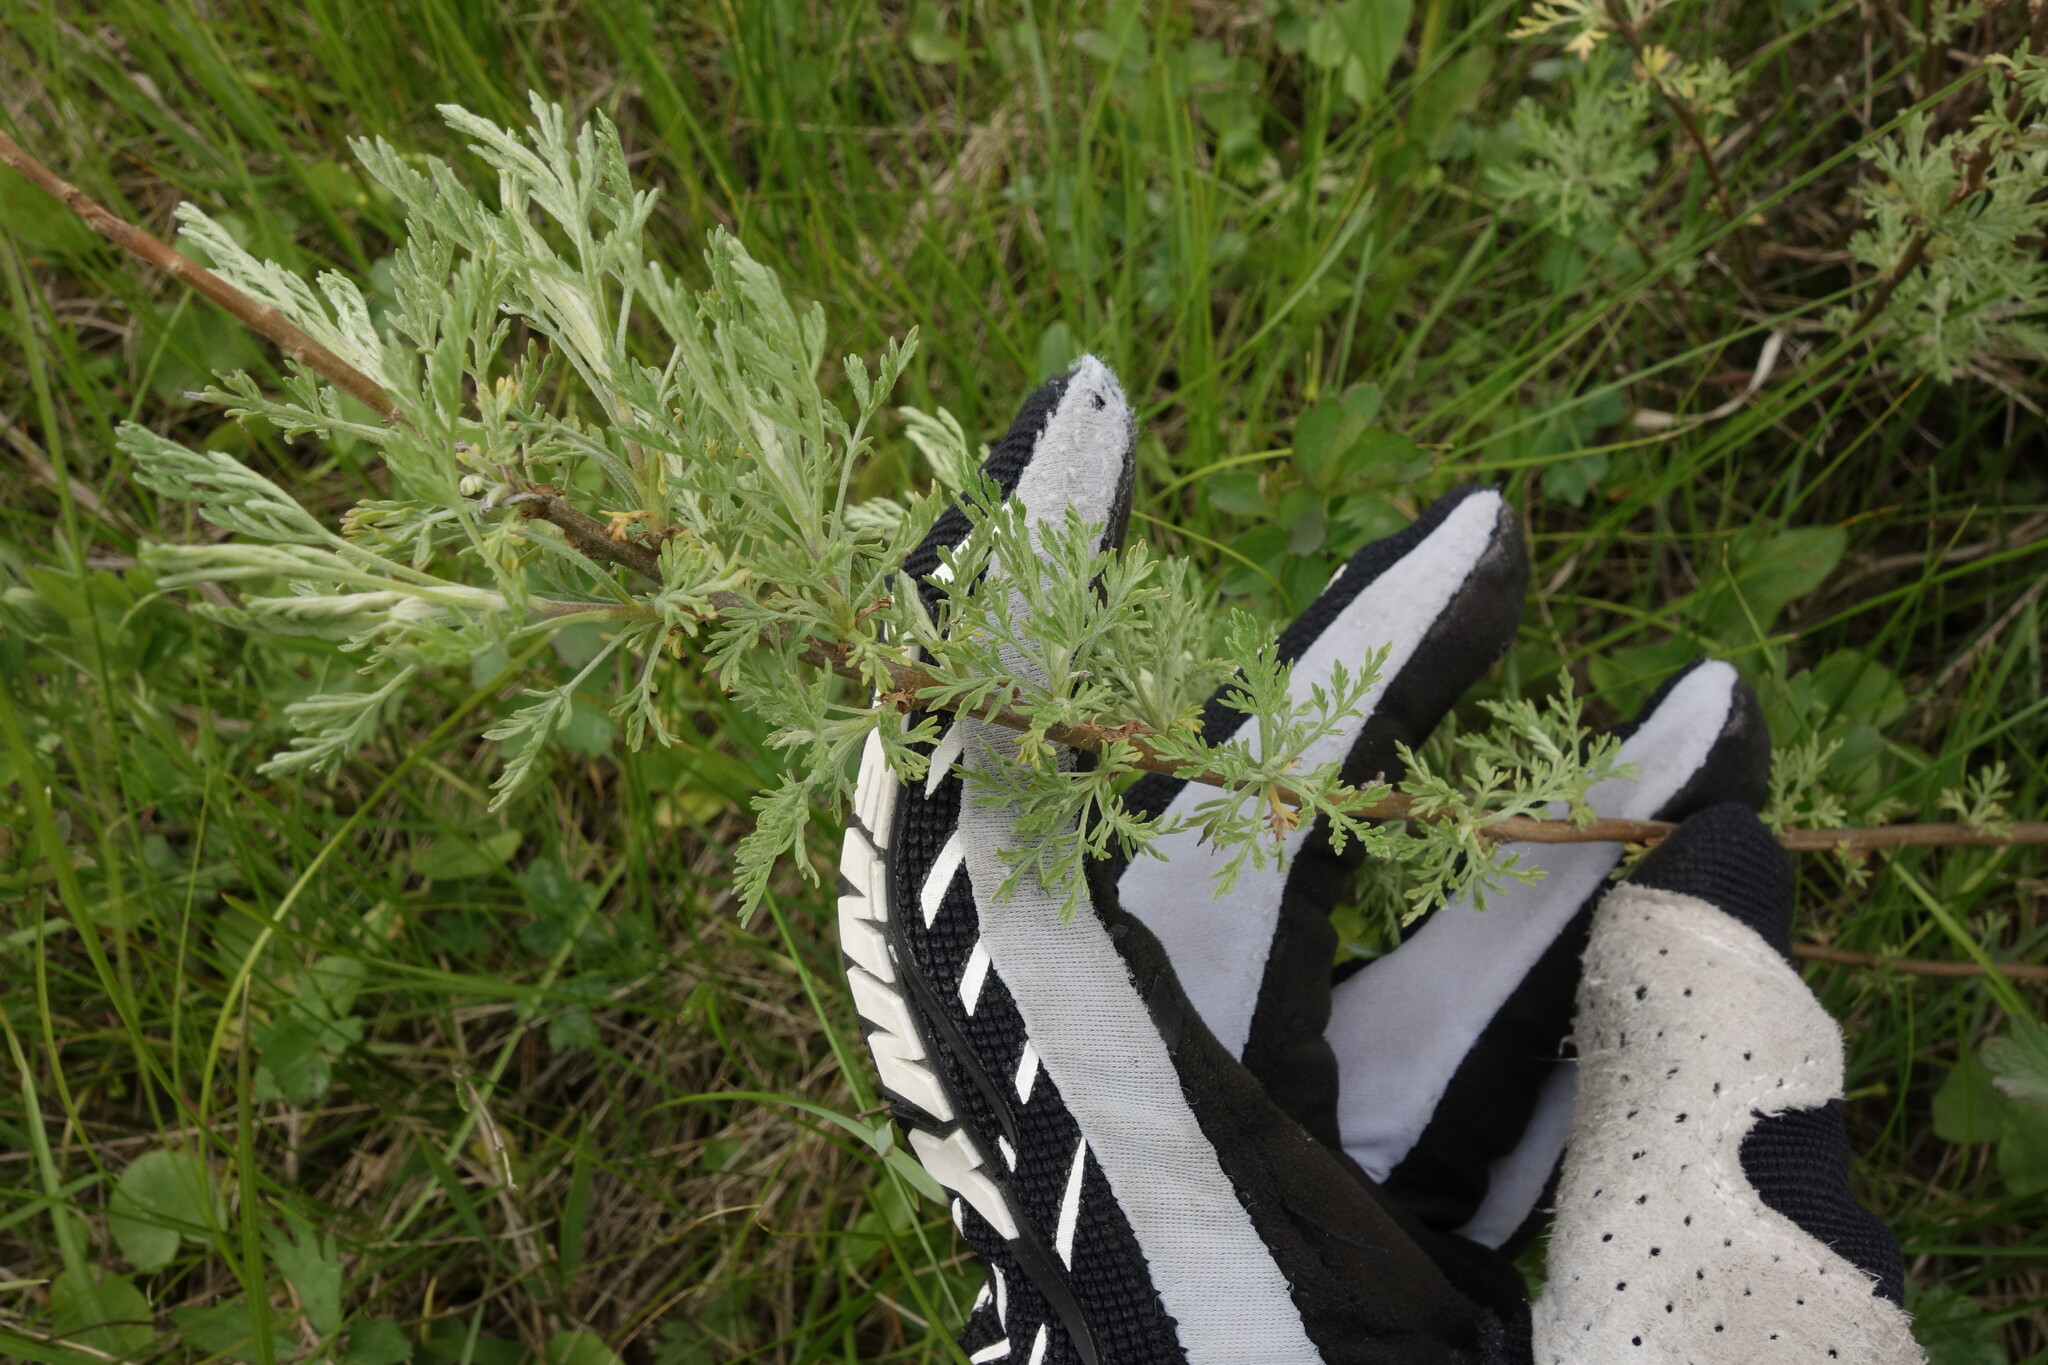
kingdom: Plantae
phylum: Tracheophyta
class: Magnoliopsida
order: Asterales
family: Asteraceae
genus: Artemisia
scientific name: Artemisia abrotanum
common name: Southernwood
